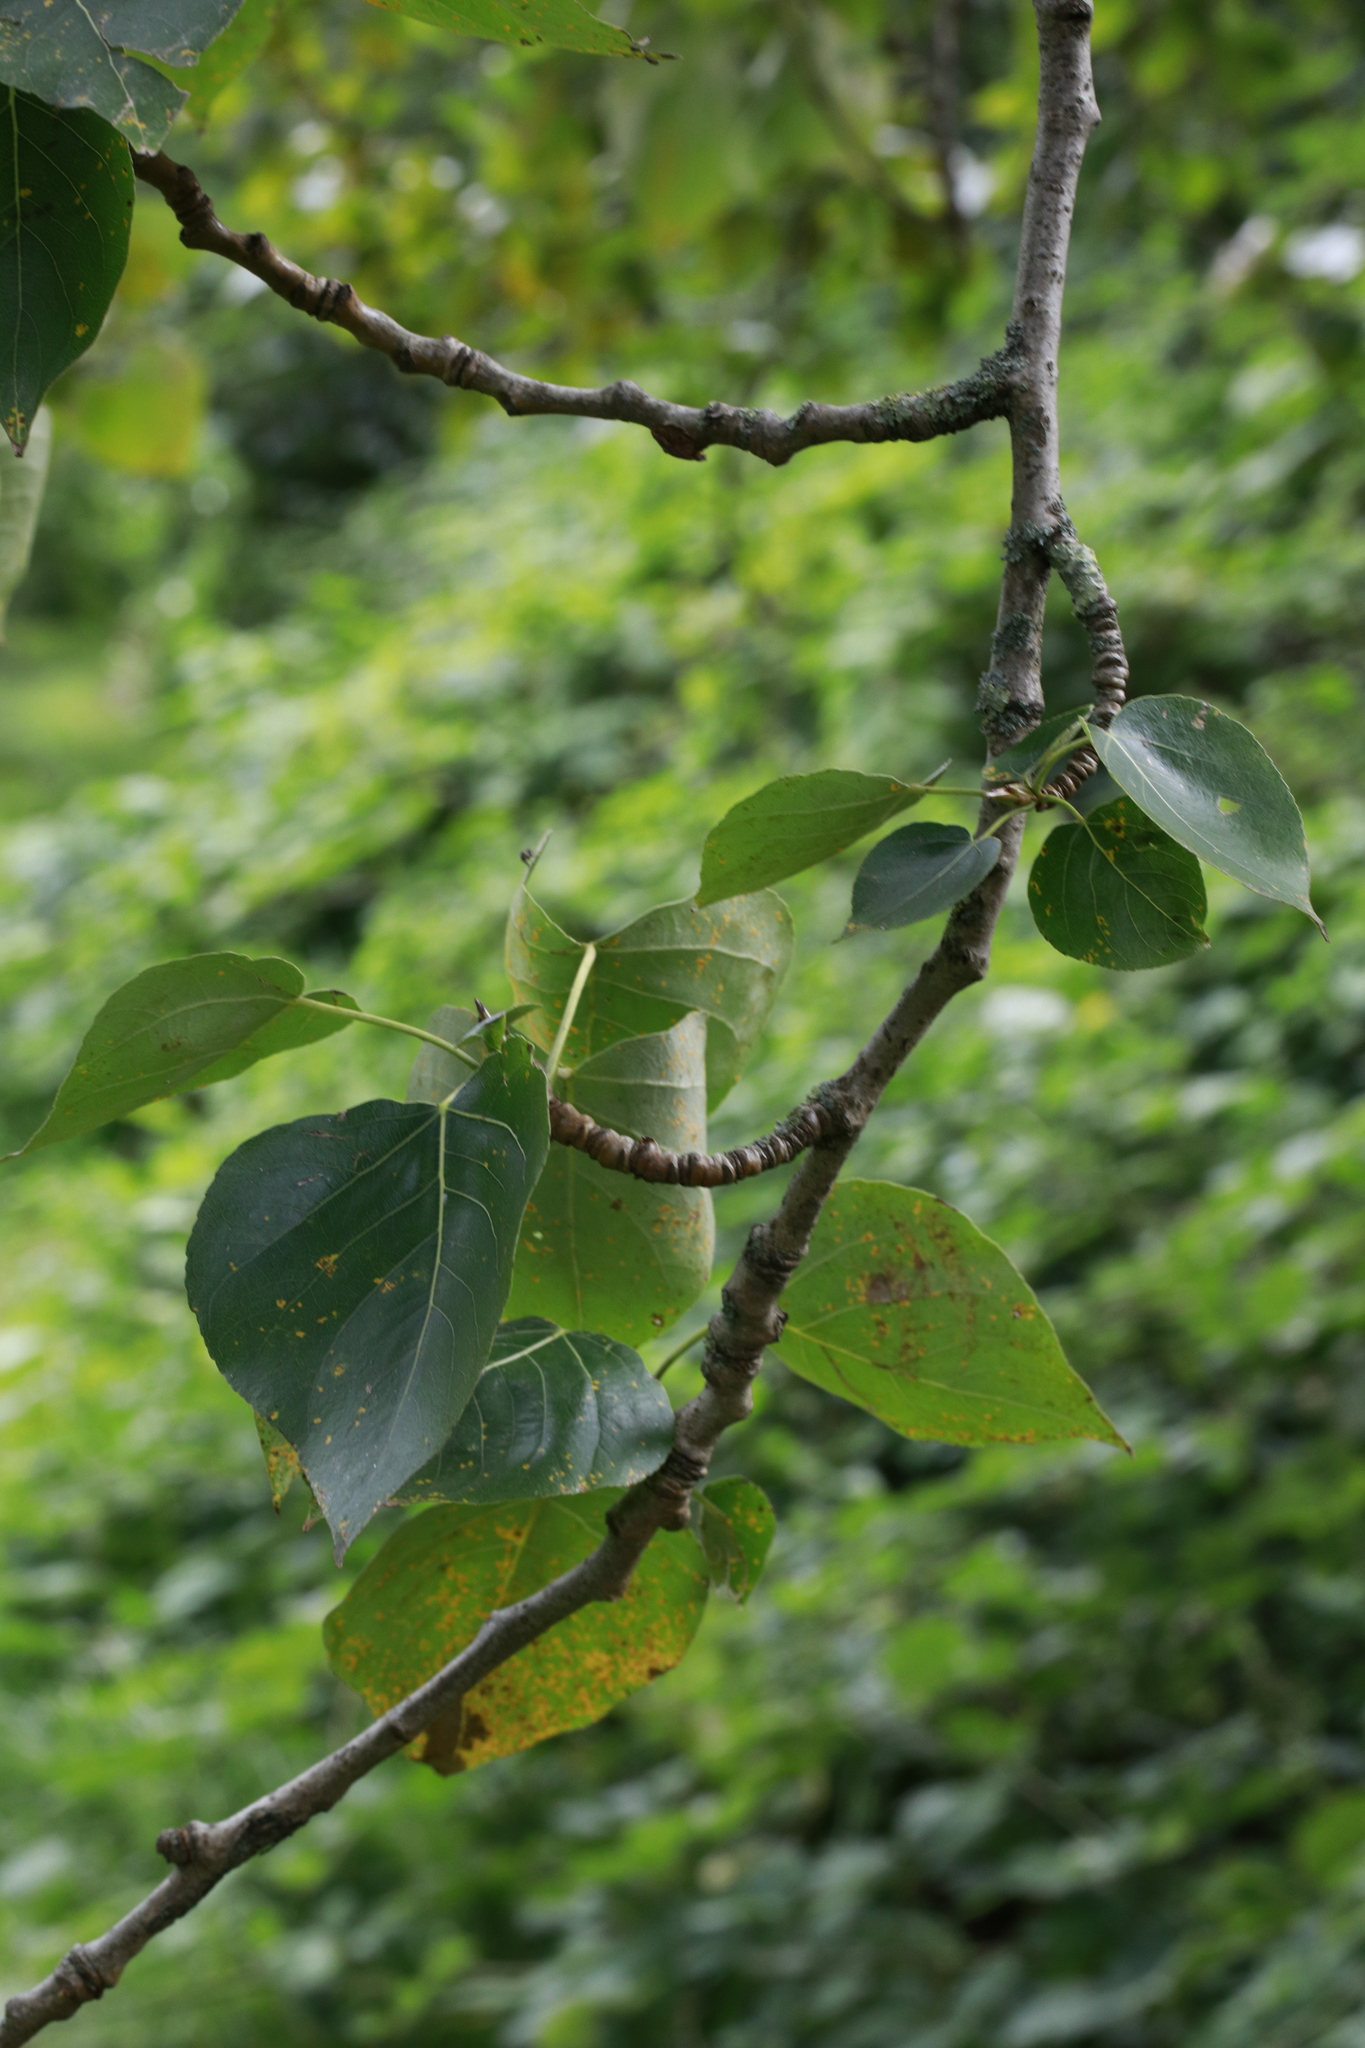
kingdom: Plantae
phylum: Tracheophyta
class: Magnoliopsida
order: Malpighiales
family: Salicaceae
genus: Populus
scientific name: Populus nigra
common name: Black poplar
